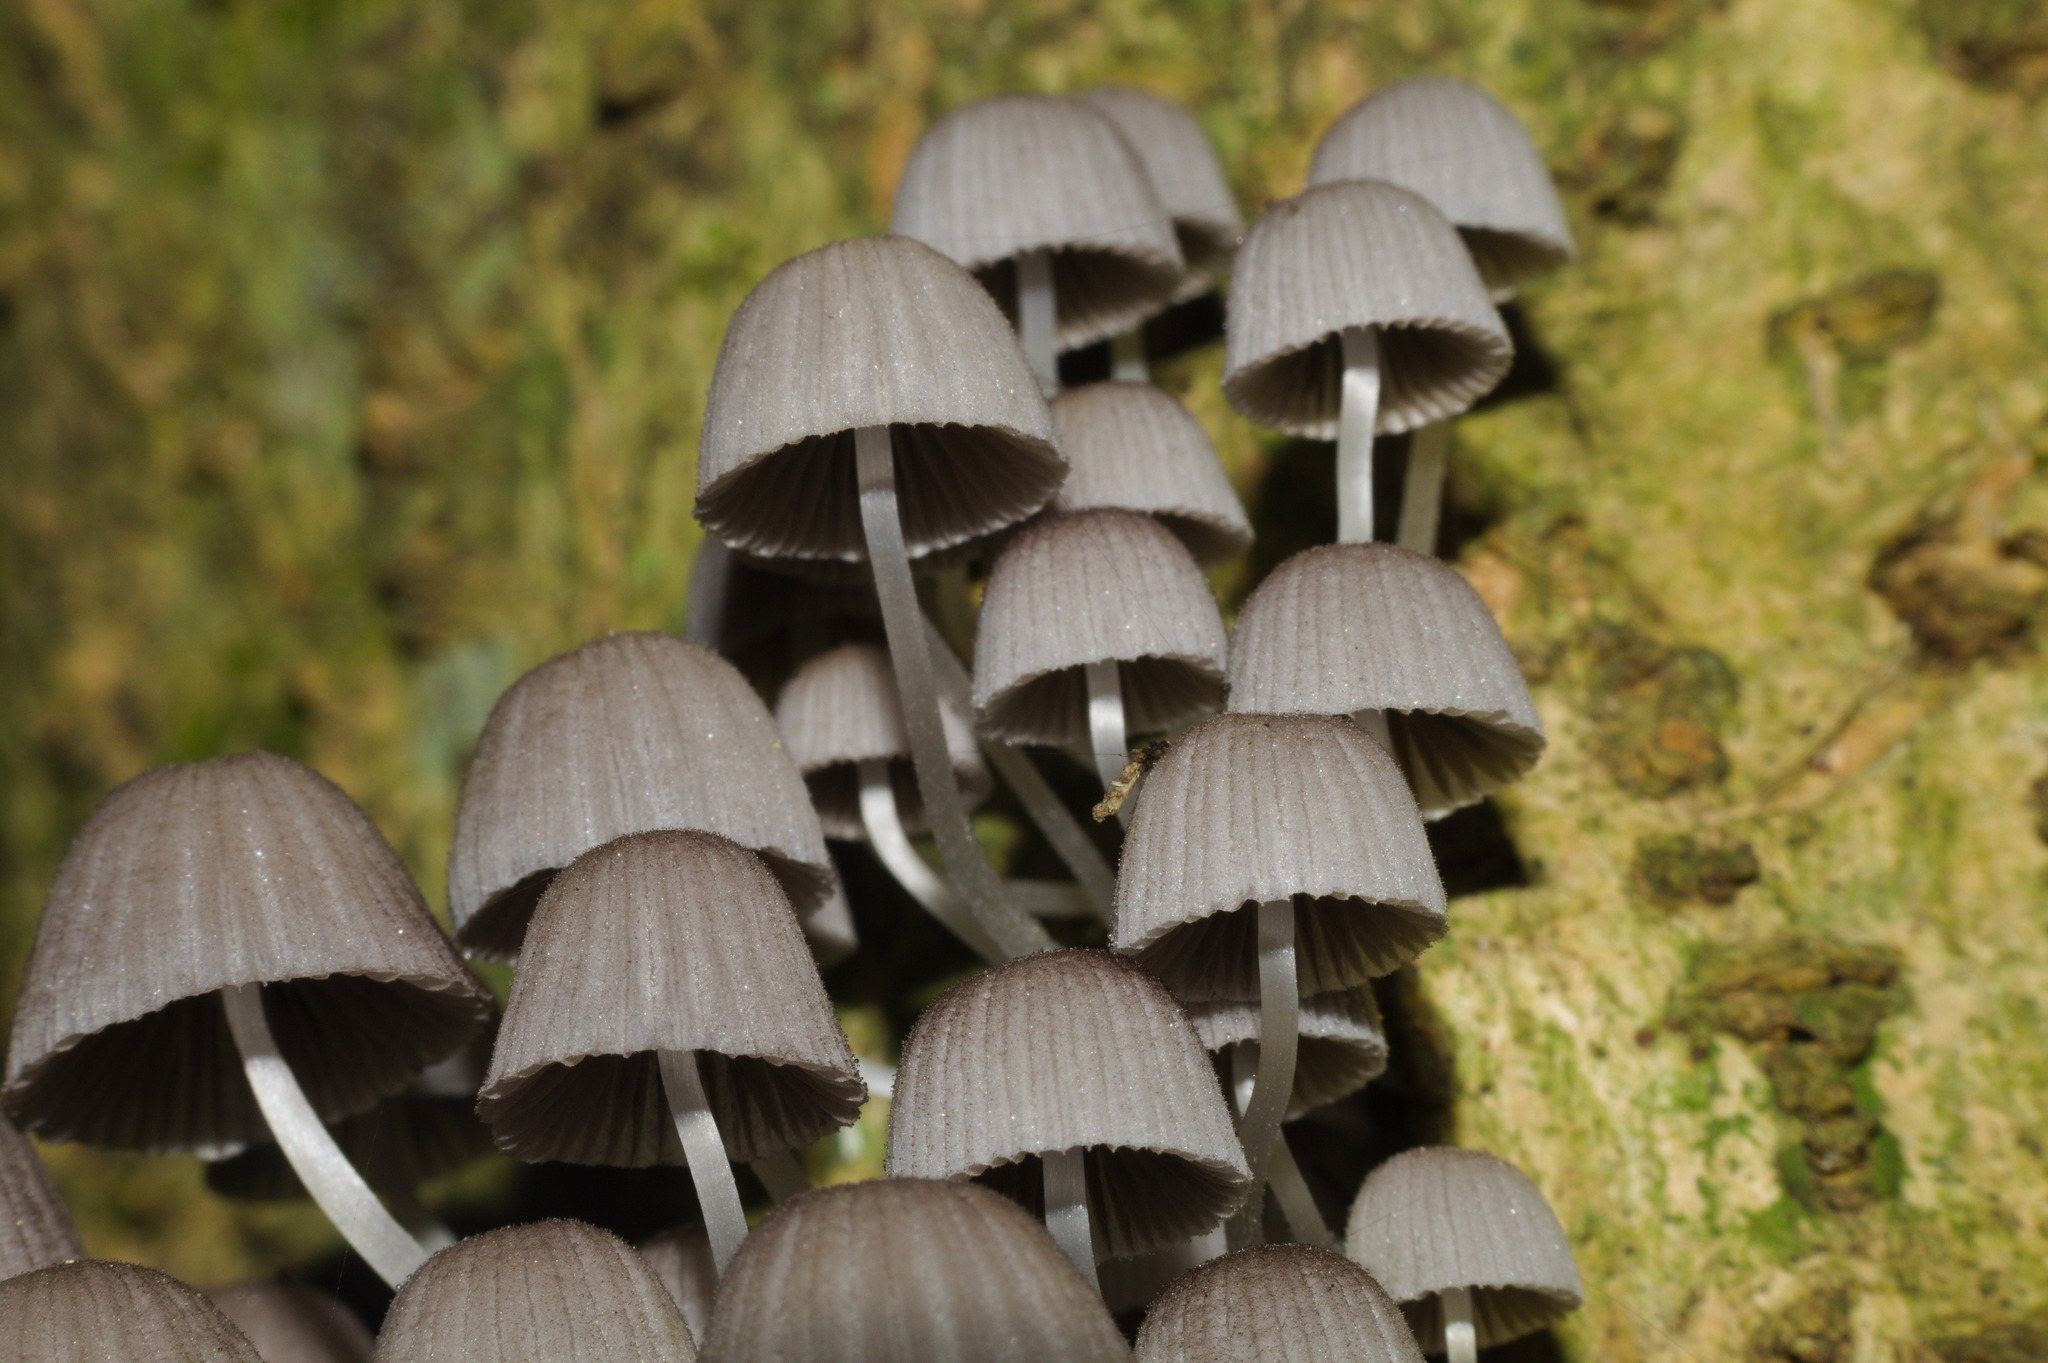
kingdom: Fungi
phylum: Basidiomycota
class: Agaricomycetes
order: Agaricales
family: Psathyrellaceae
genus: Coprinellus
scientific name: Coprinellus disseminatus
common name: Fairies' bonnets
